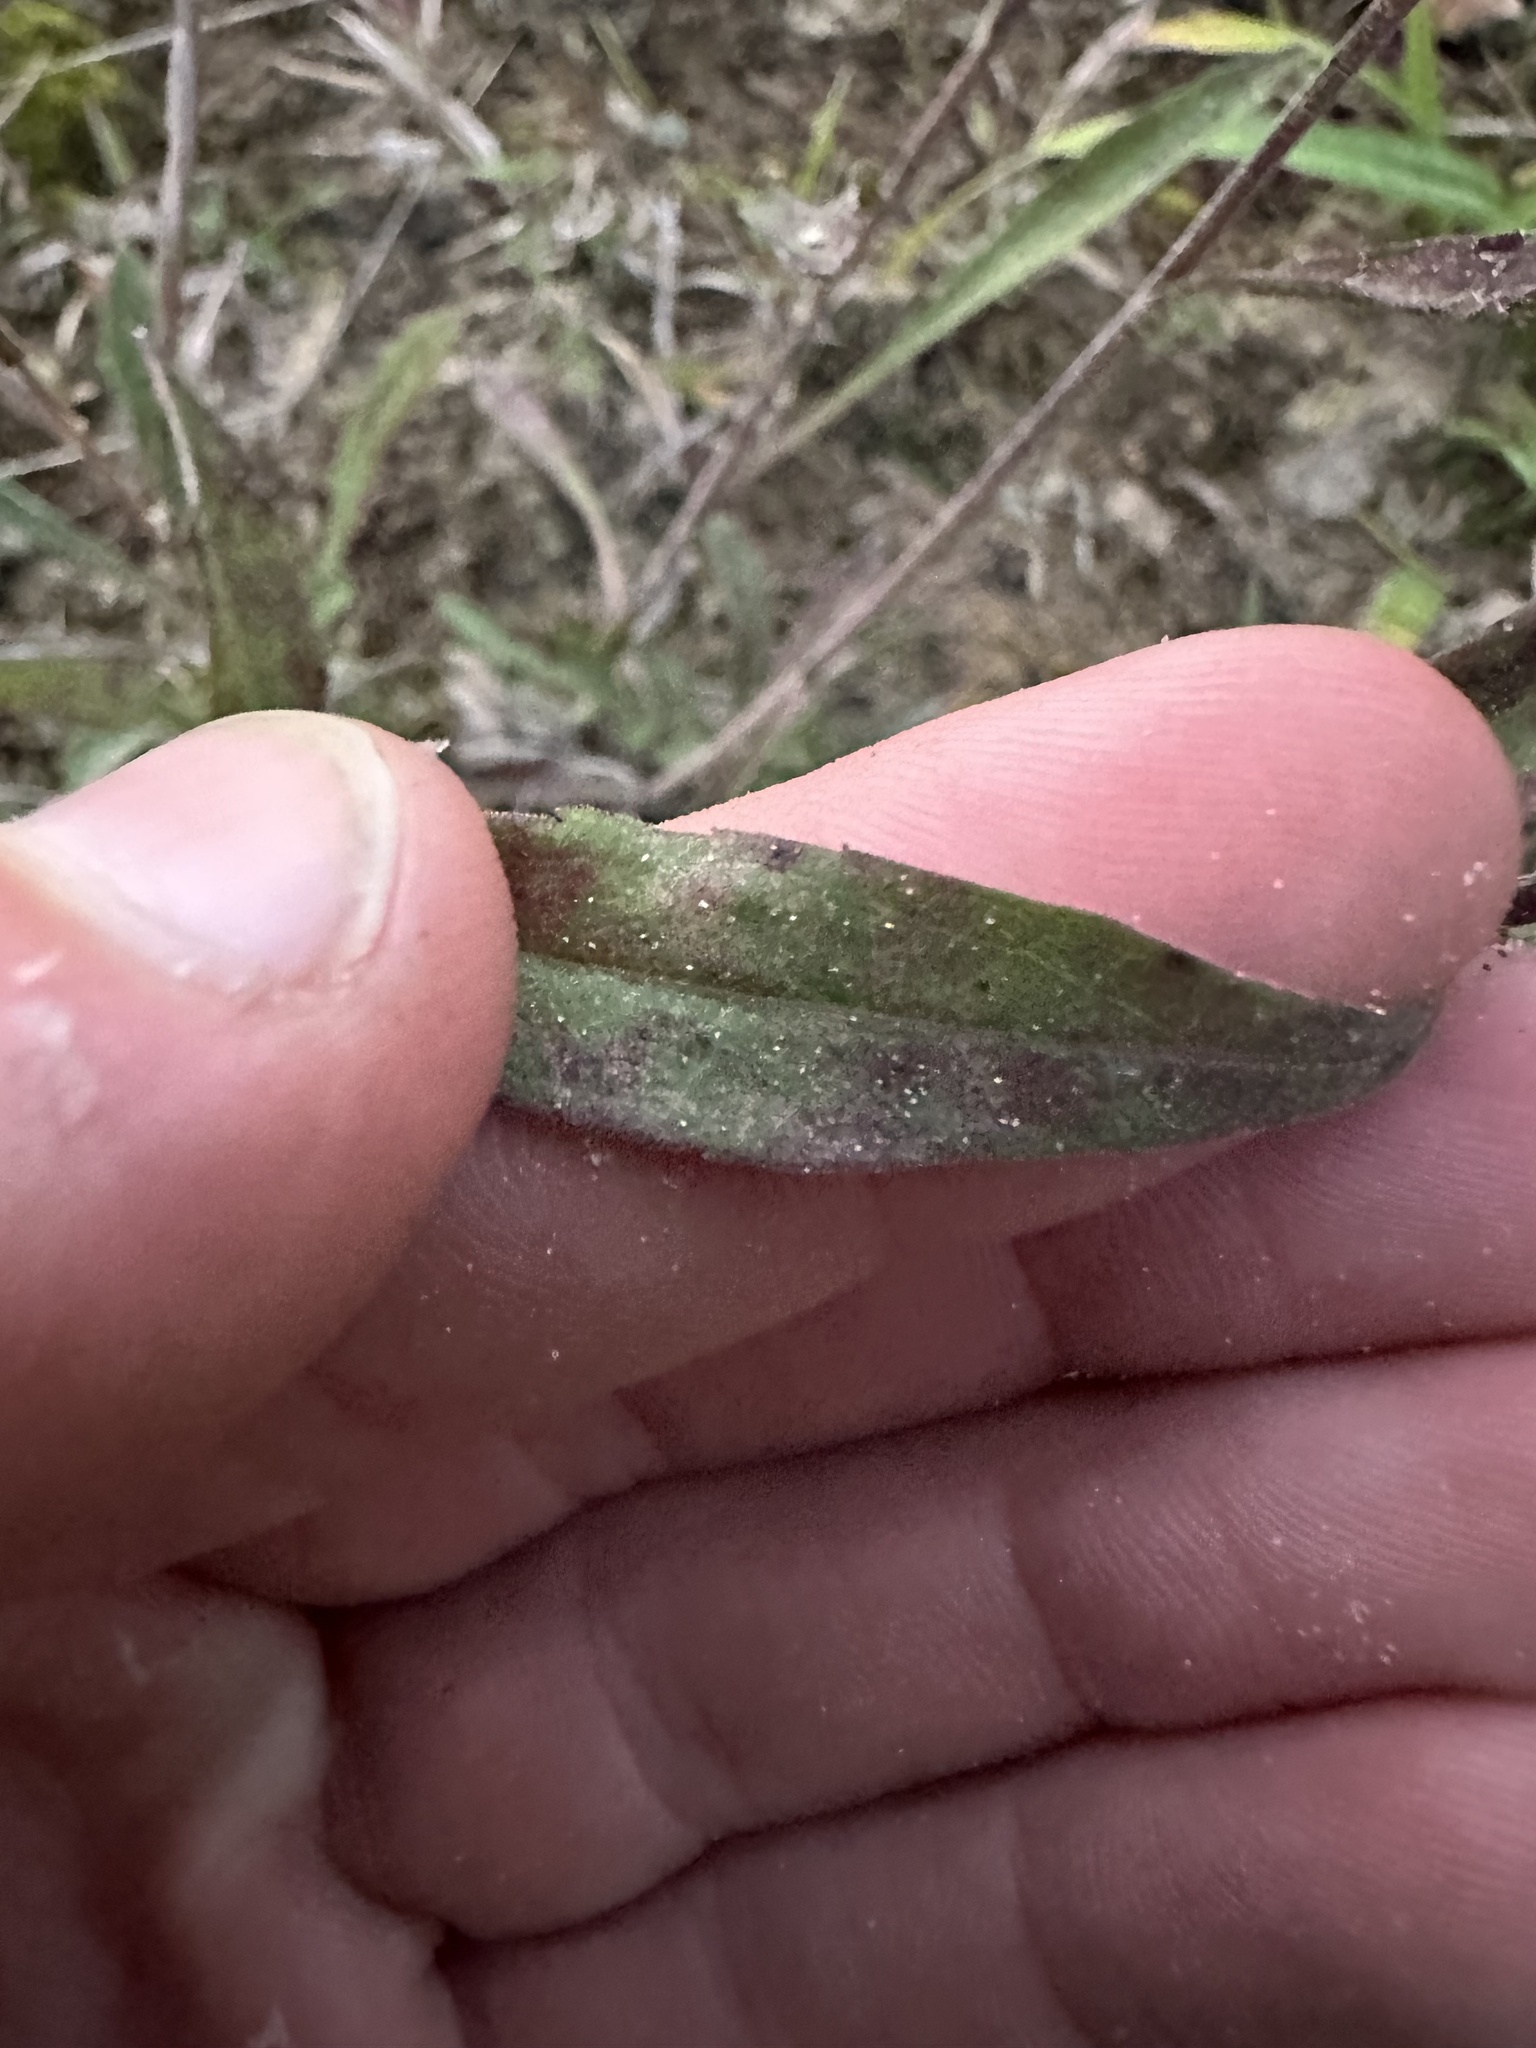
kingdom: Plantae
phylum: Tracheophyta
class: Magnoliopsida
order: Asterales
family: Asteraceae
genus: Solidago
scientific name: Solidago nemoralis
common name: Grey goldenrod
